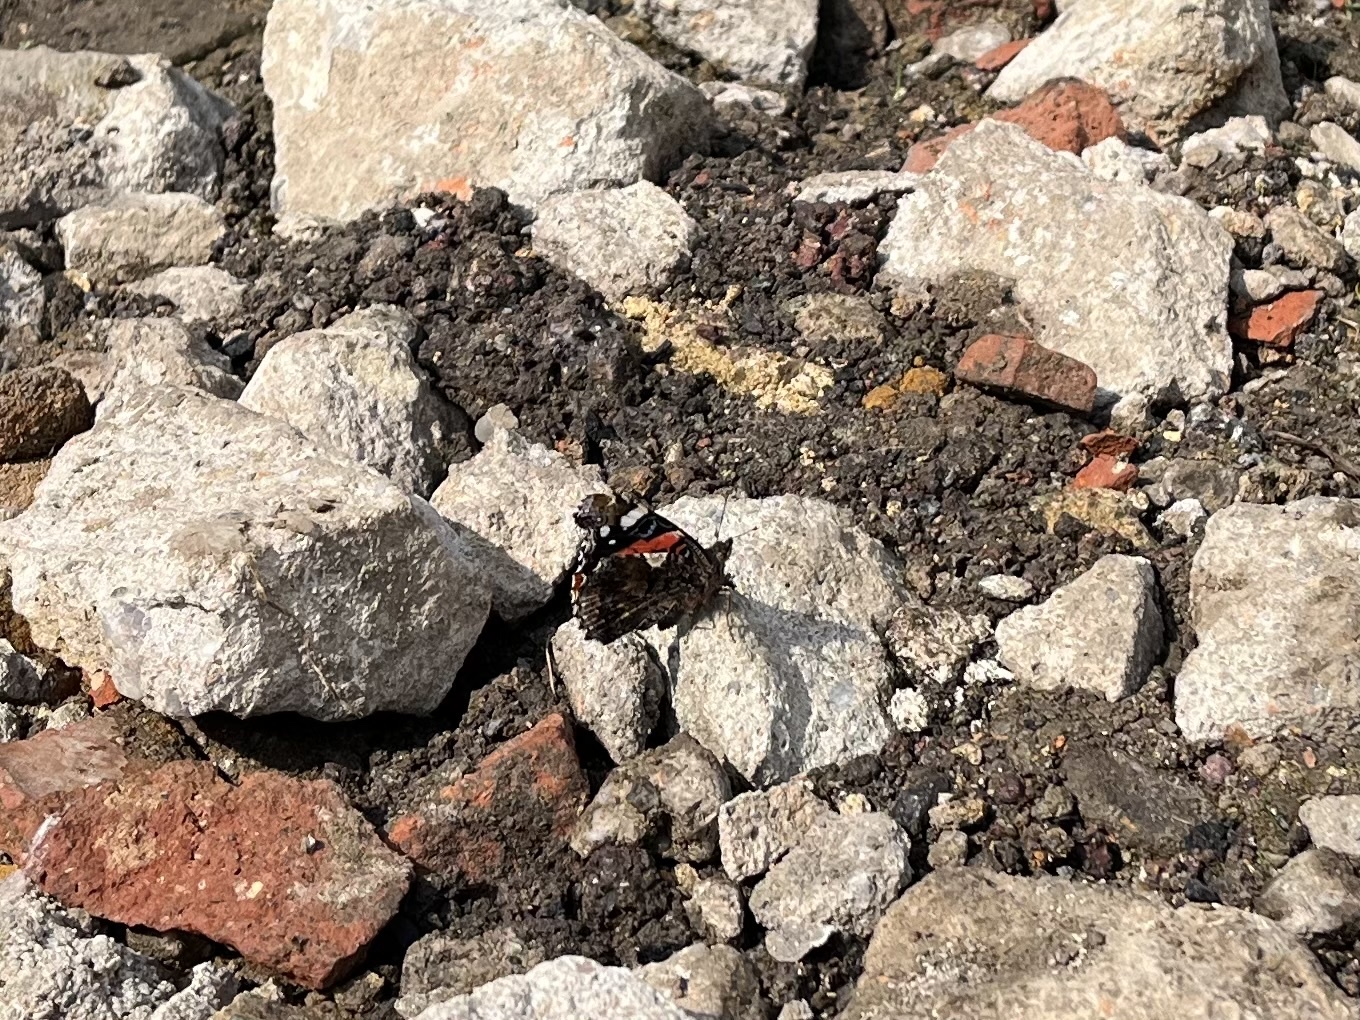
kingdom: Animalia
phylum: Arthropoda
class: Insecta
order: Lepidoptera
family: Nymphalidae
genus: Vanessa
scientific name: Vanessa atalanta
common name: Red admiral
